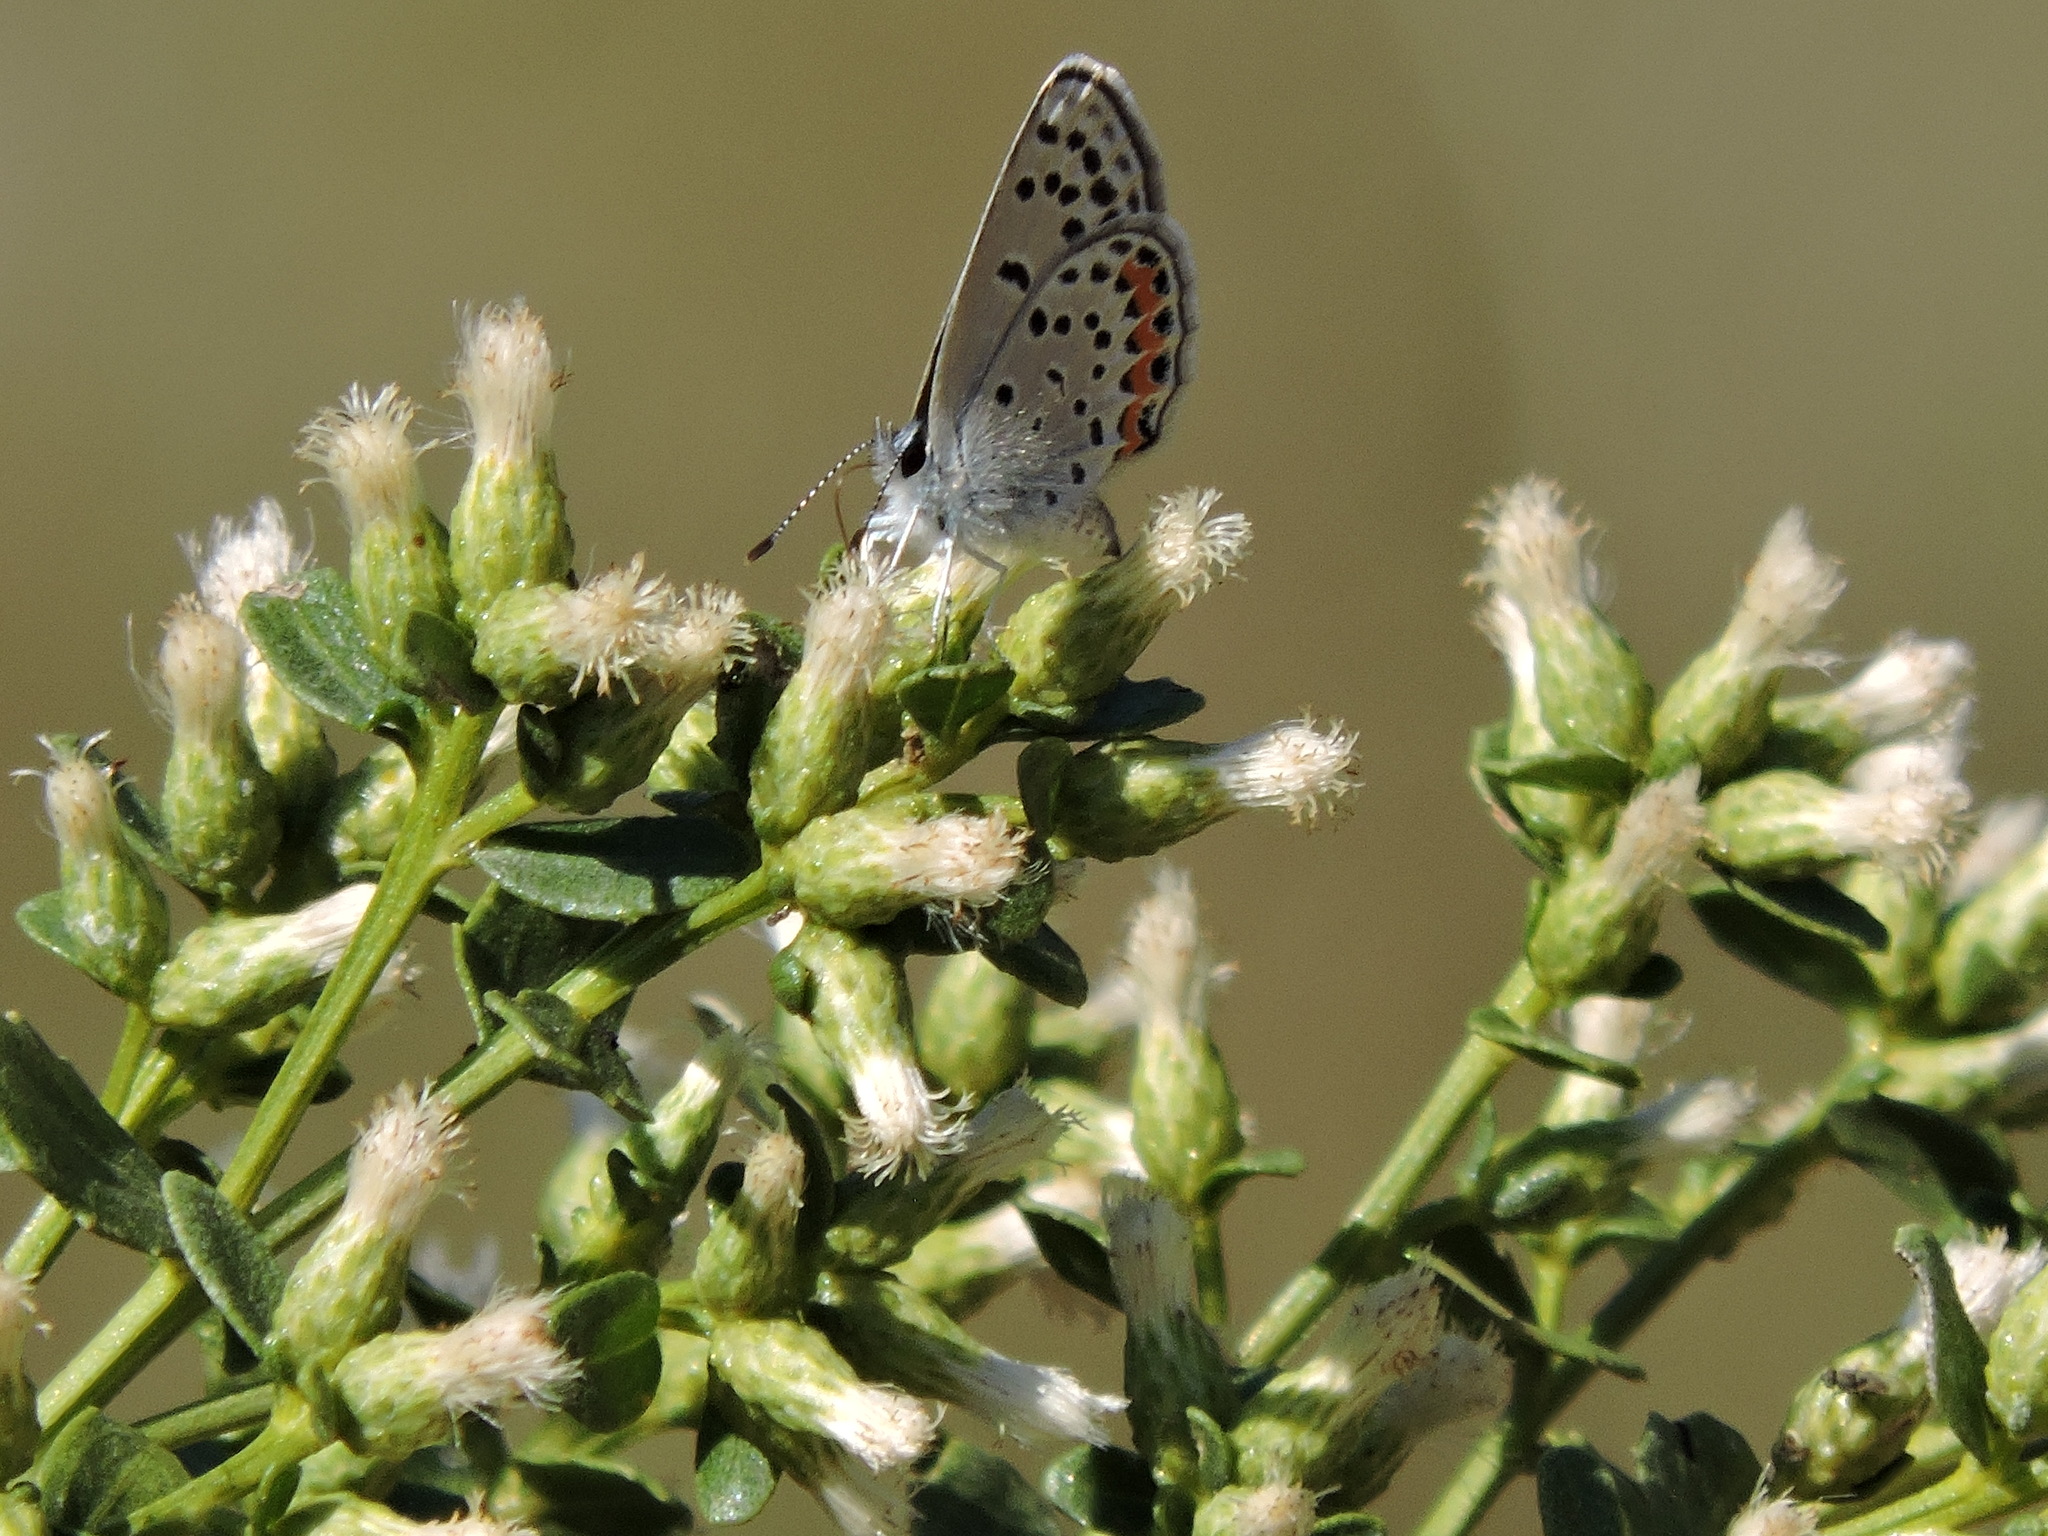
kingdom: Animalia
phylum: Arthropoda
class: Insecta
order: Lepidoptera
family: Lycaenidae
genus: Icaricia
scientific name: Icaricia acmon
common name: Acmon blue
